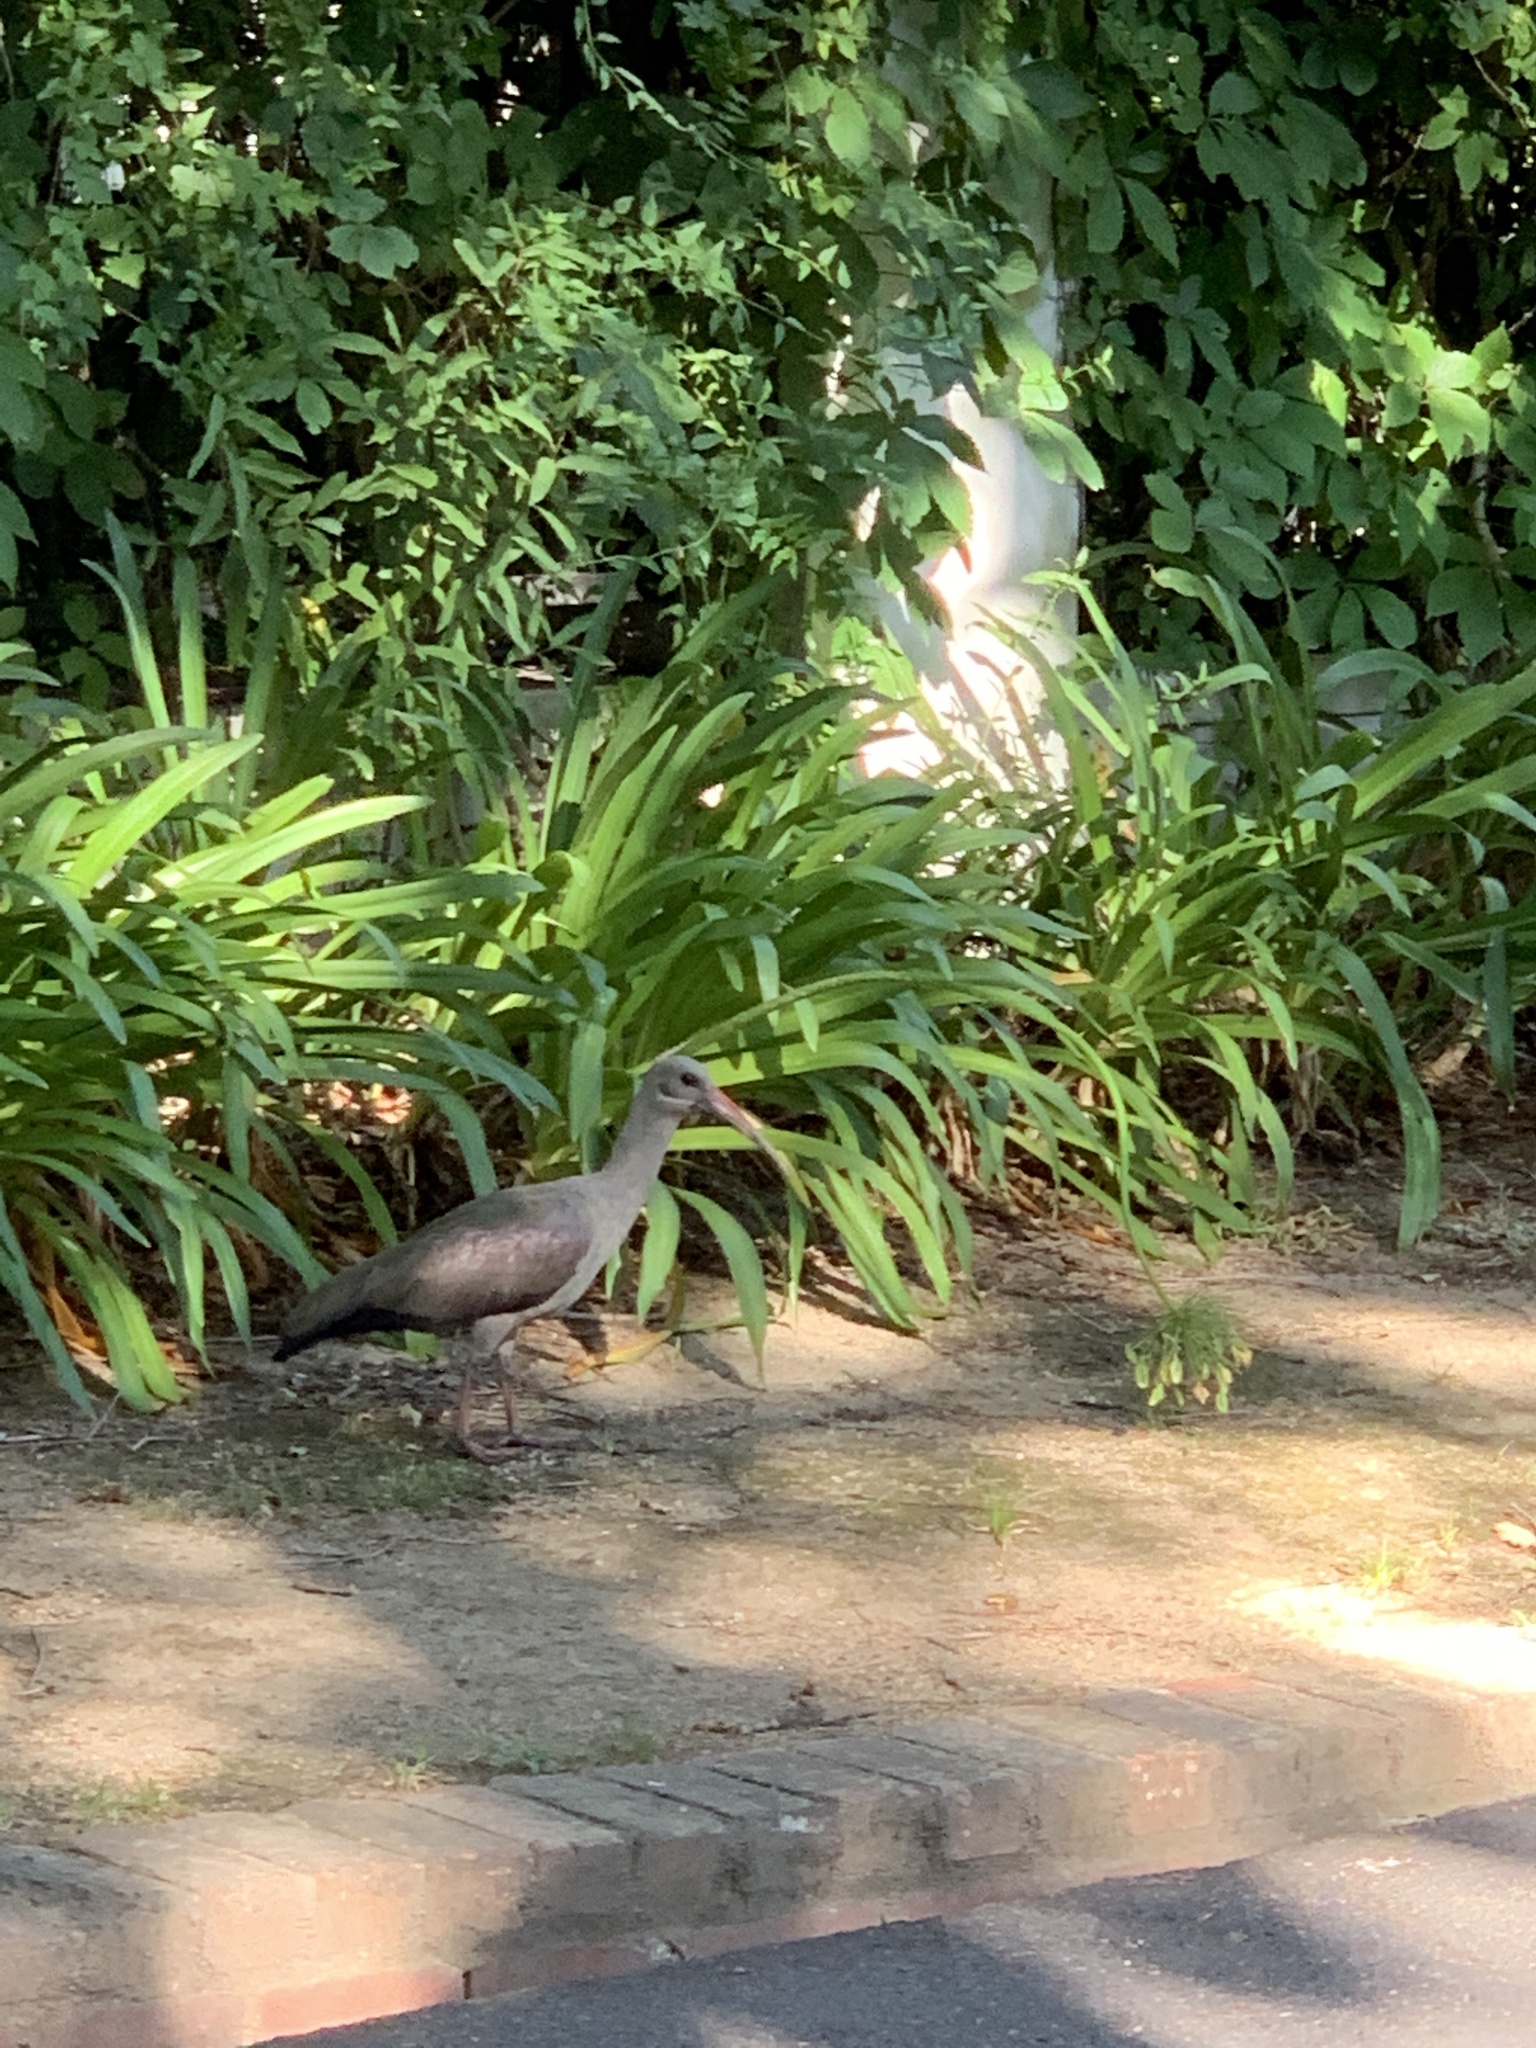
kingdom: Animalia
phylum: Chordata
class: Aves
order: Pelecaniformes
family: Threskiornithidae
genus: Bostrychia
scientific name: Bostrychia hagedash
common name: Hadada ibis
